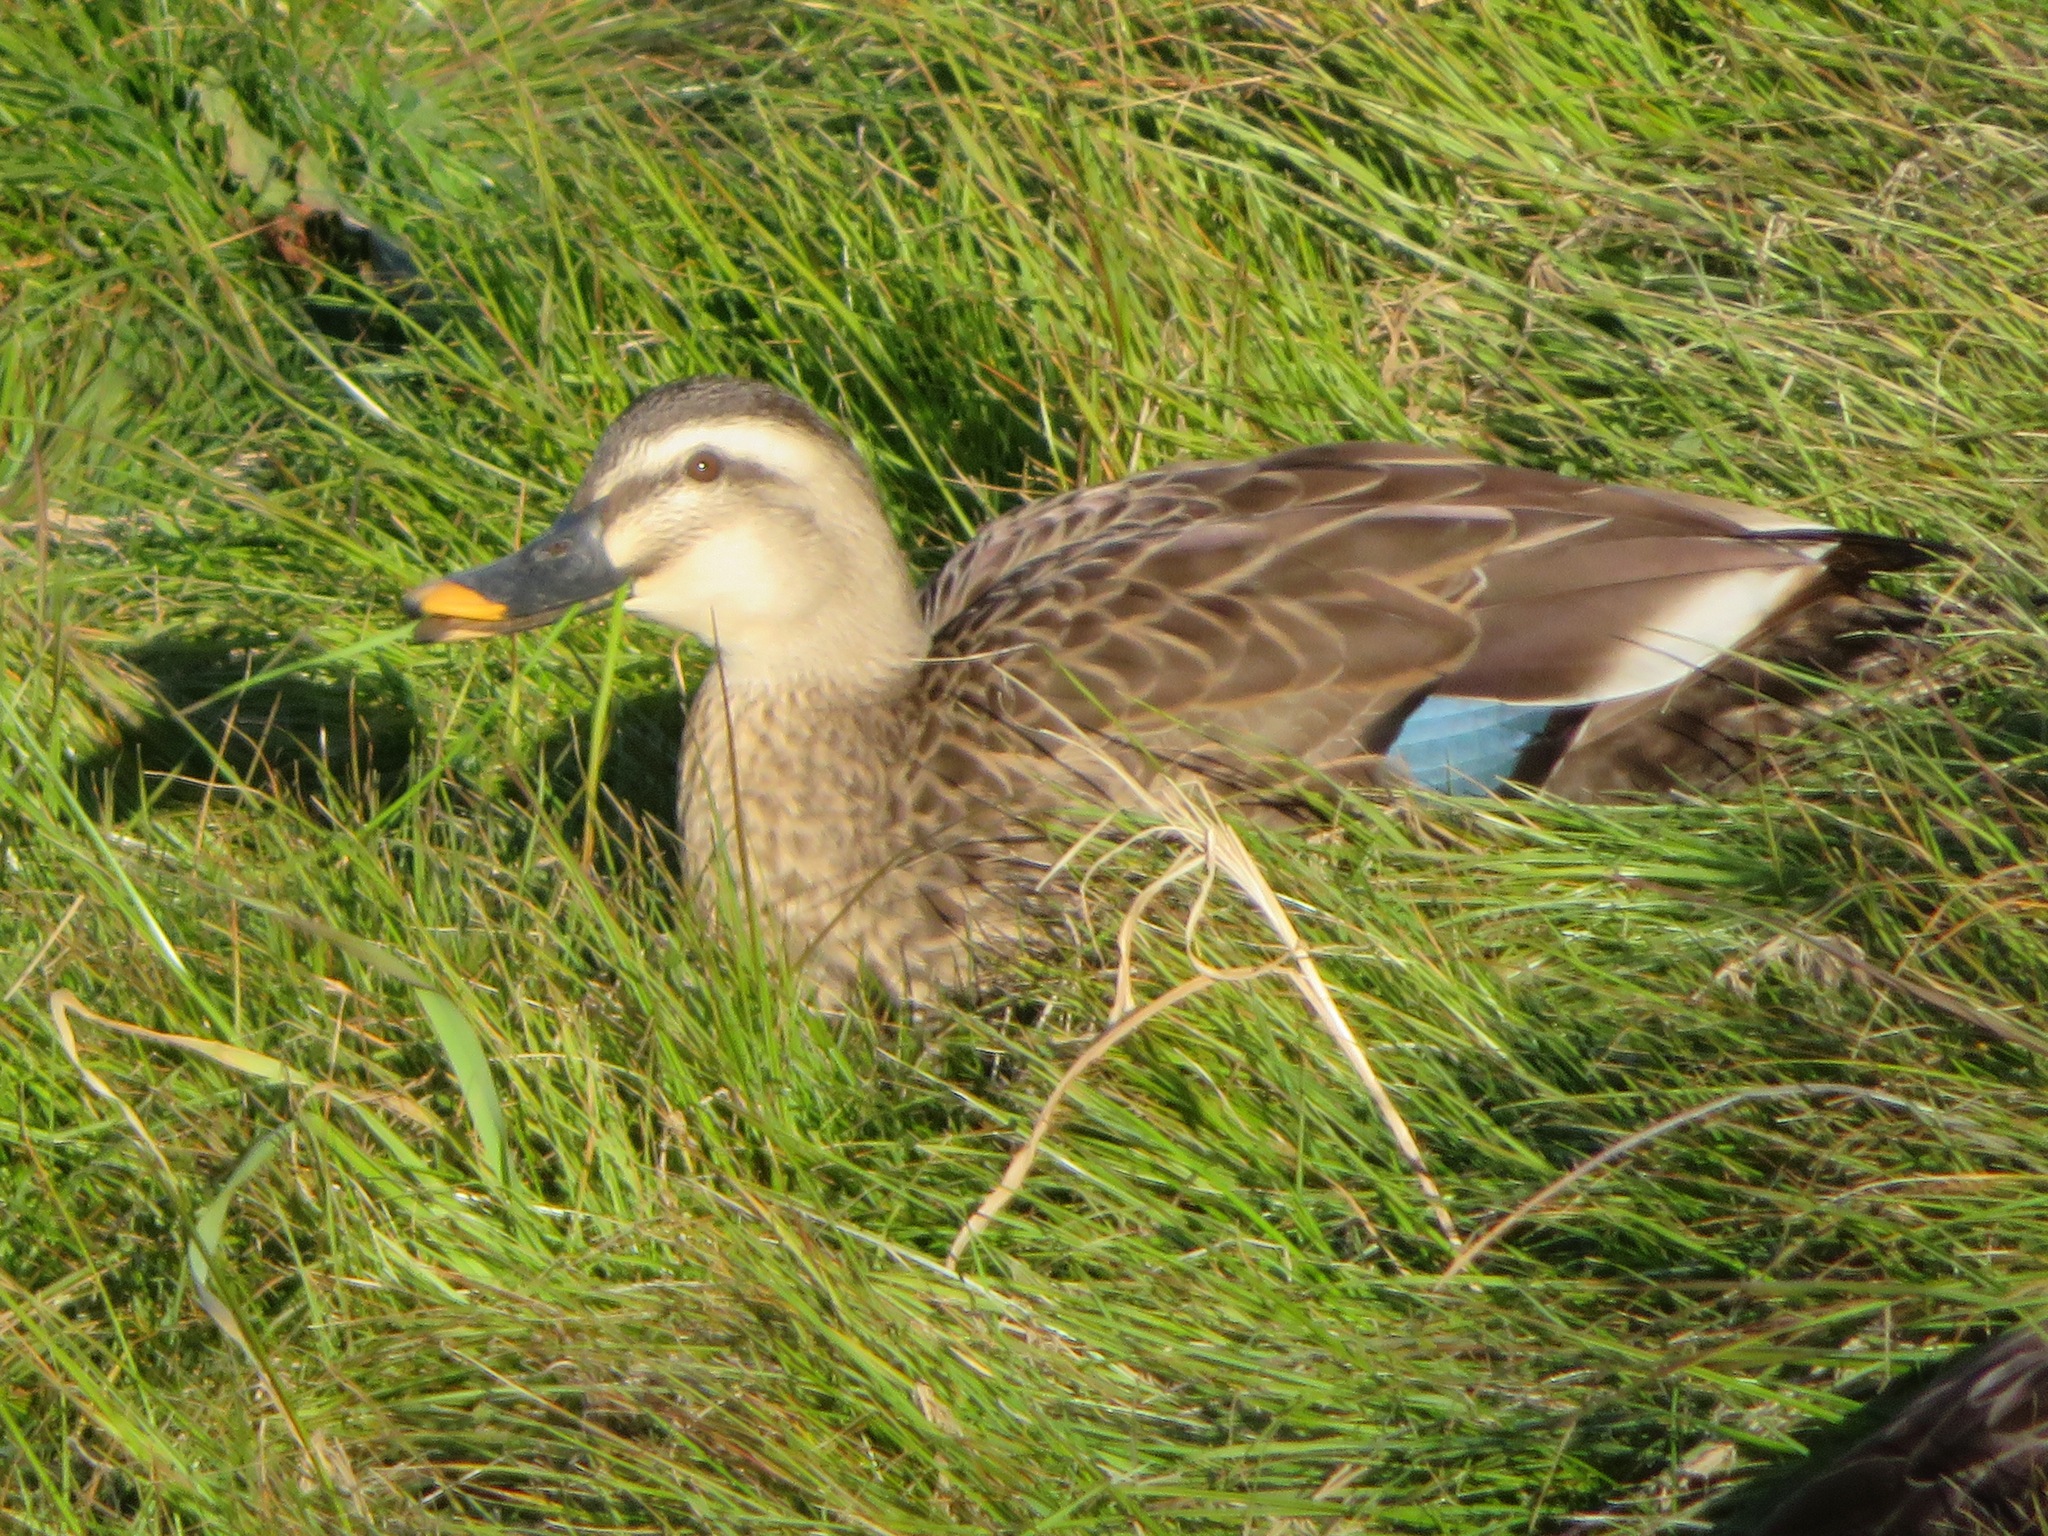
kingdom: Animalia
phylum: Chordata
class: Aves
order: Anseriformes
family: Anatidae
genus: Anas
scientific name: Anas zonorhyncha
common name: Eastern spot-billed duck
